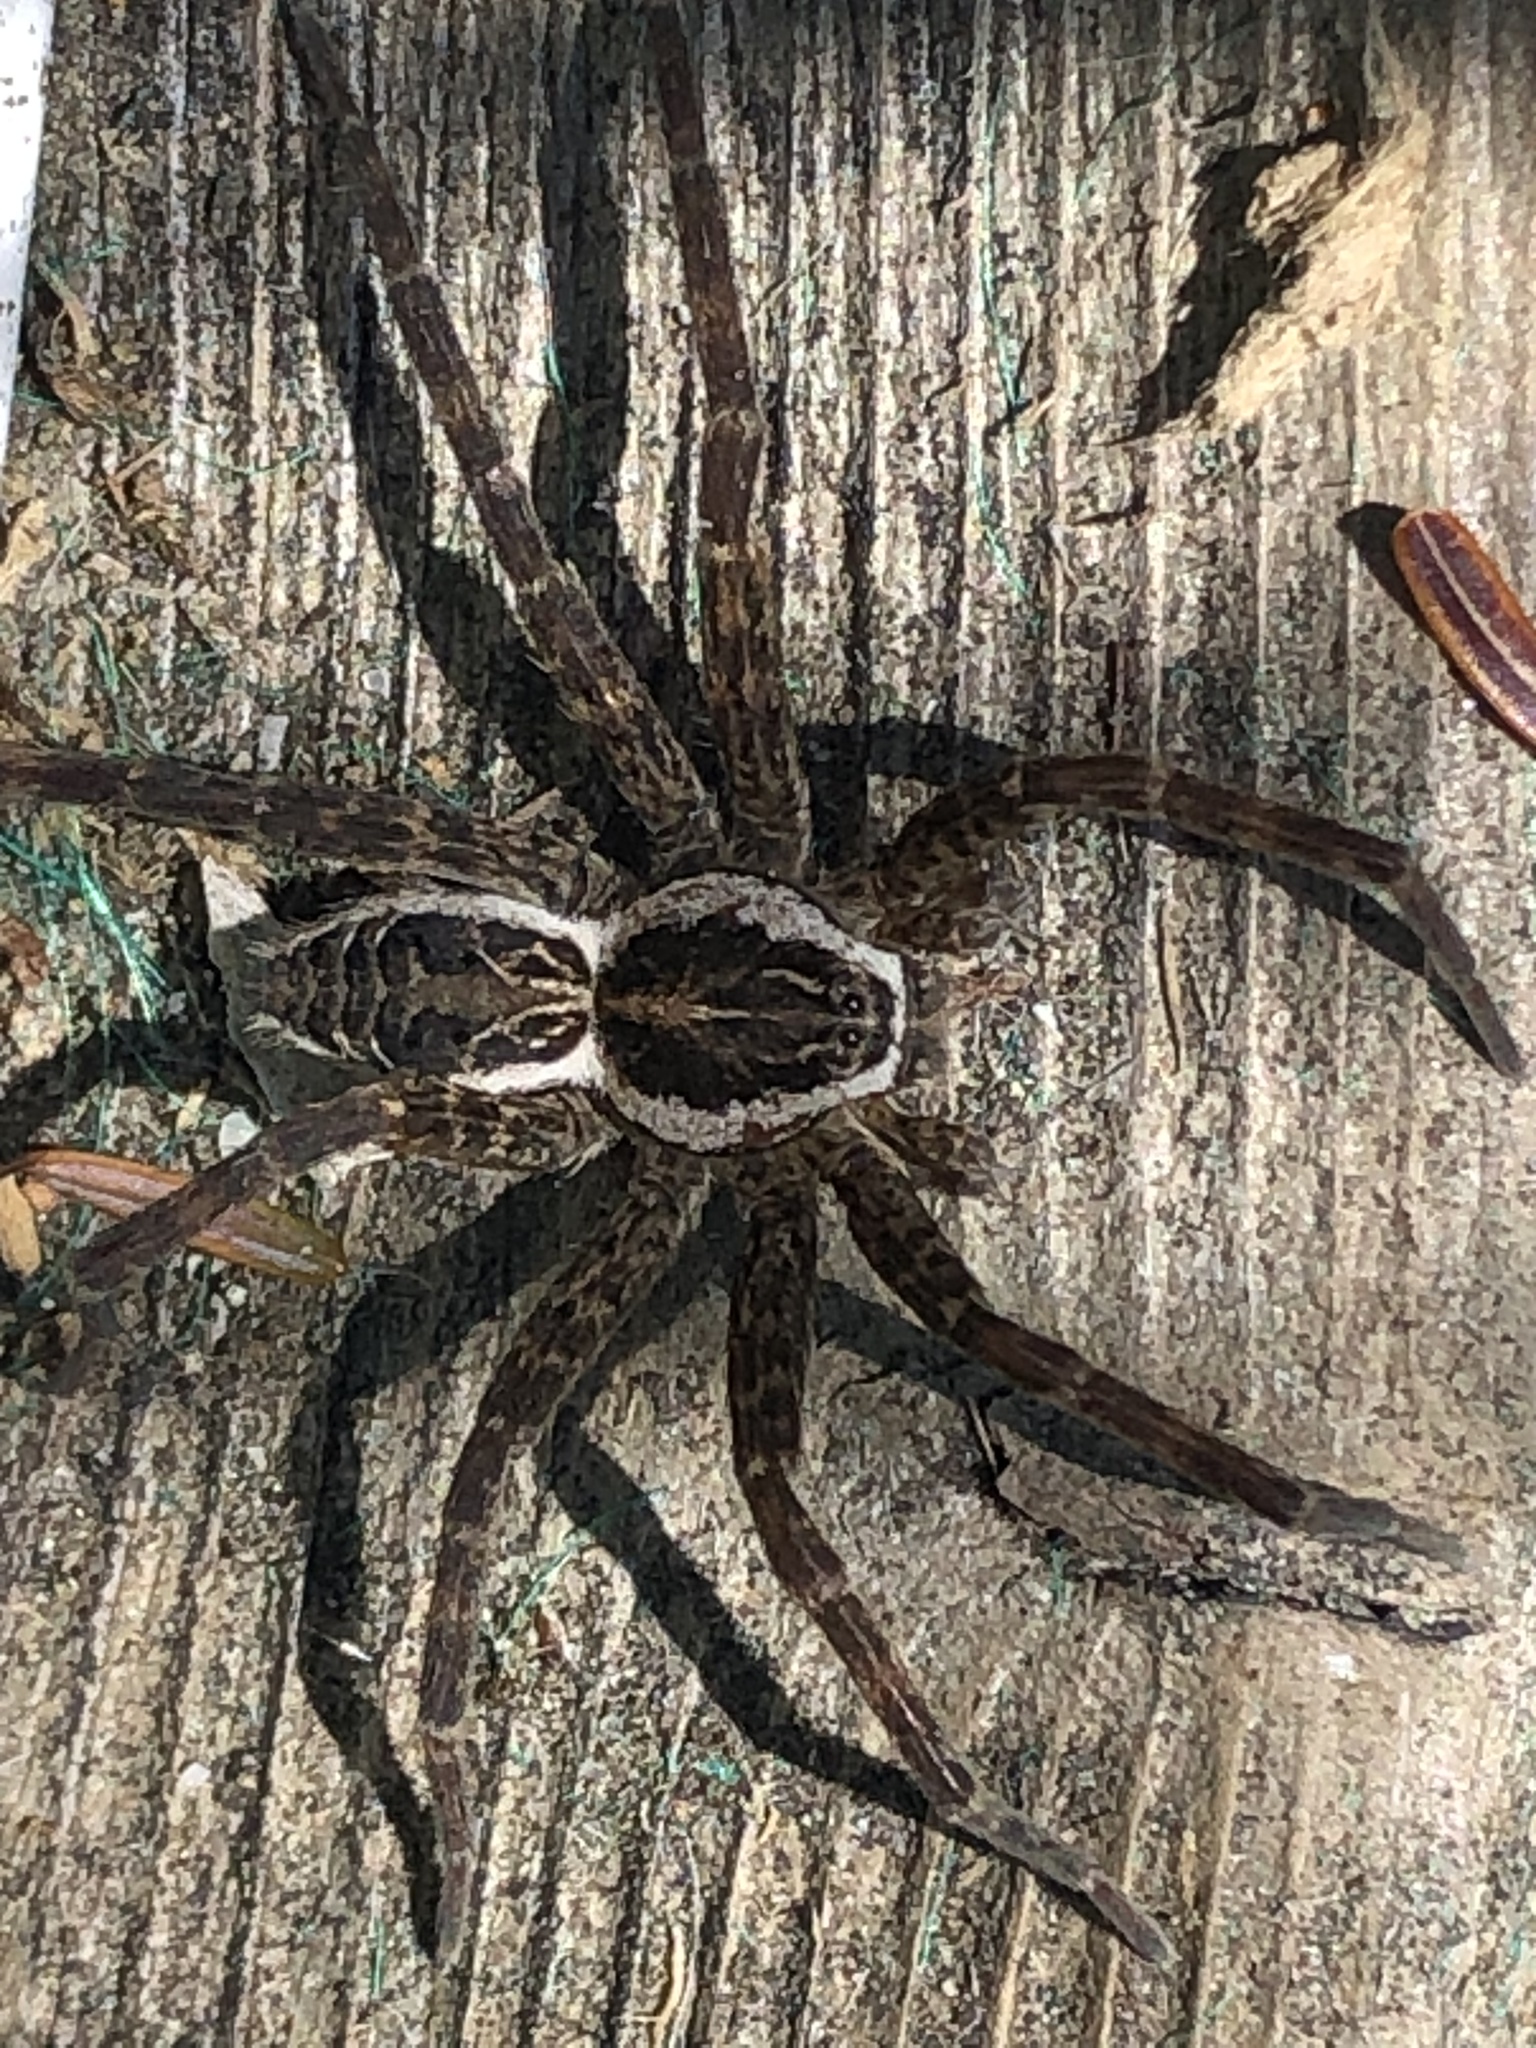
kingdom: Animalia
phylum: Arthropoda
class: Arachnida
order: Araneae
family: Pisauridae
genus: Dolomedes
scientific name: Dolomedes scriptus
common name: Striped fishing spider
